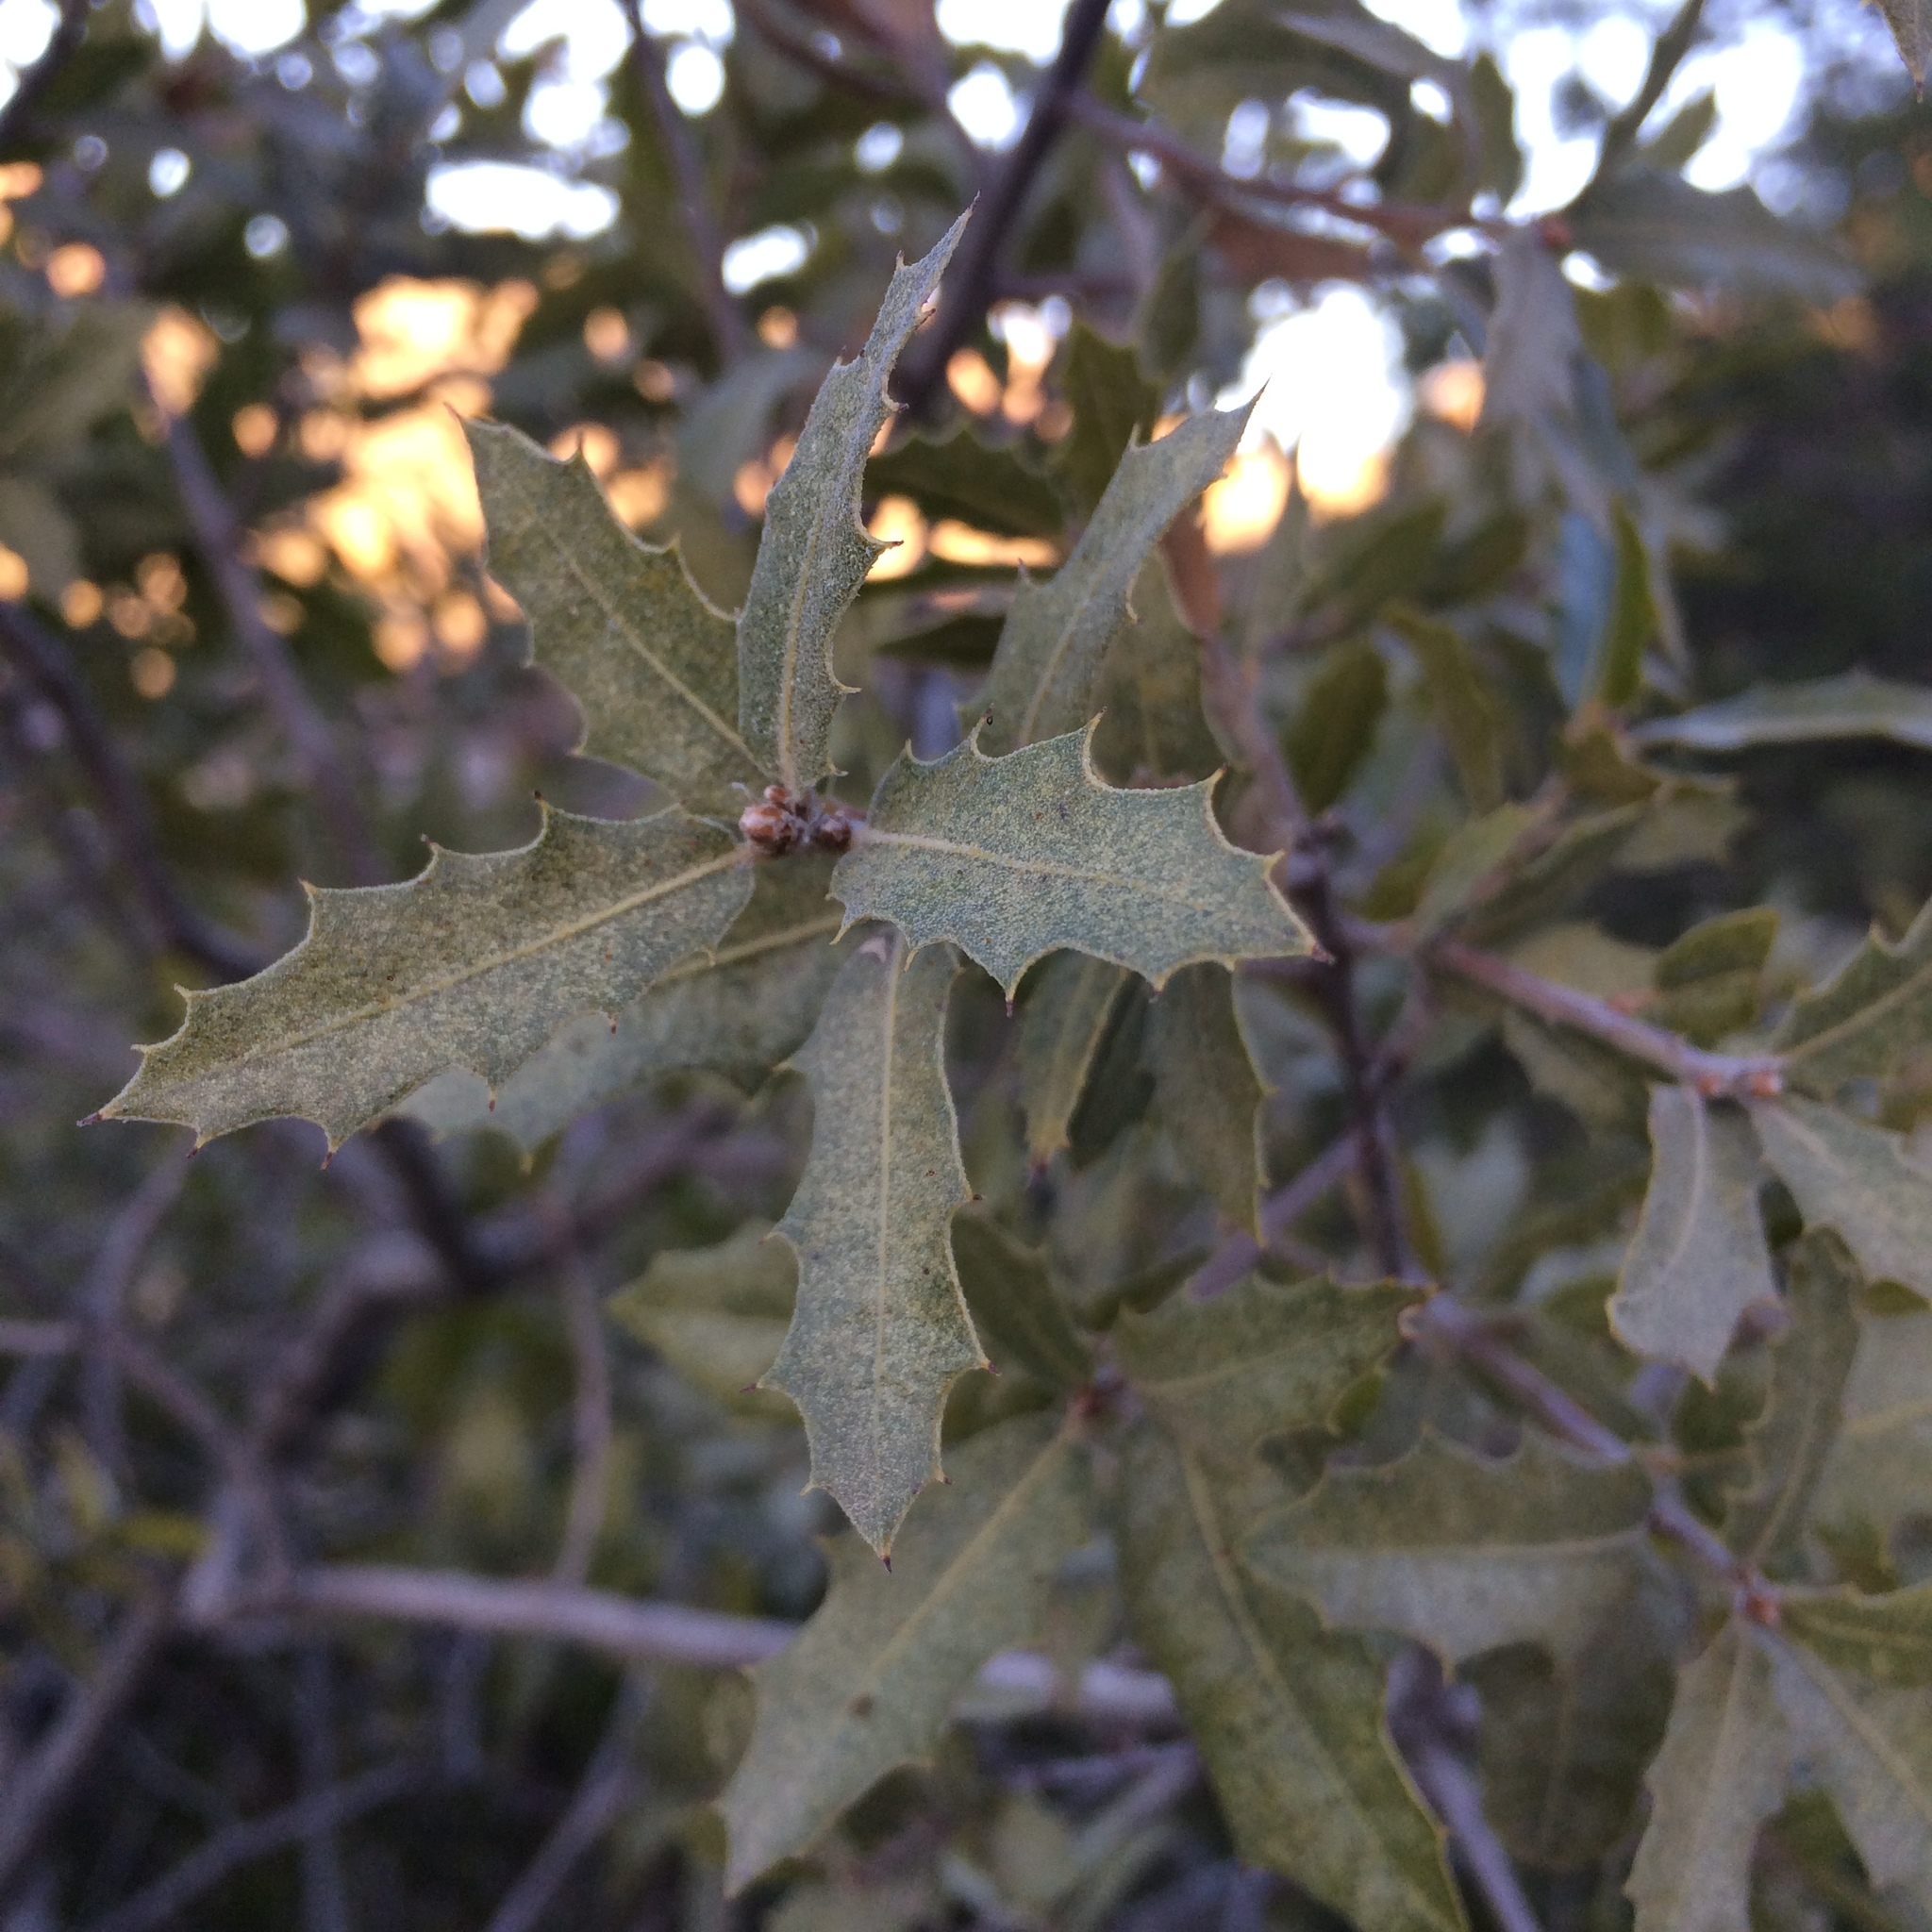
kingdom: Plantae
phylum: Tracheophyta
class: Magnoliopsida
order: Fagales
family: Fagaceae
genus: Quercus
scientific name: Quercus emoryi
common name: Emory oak
